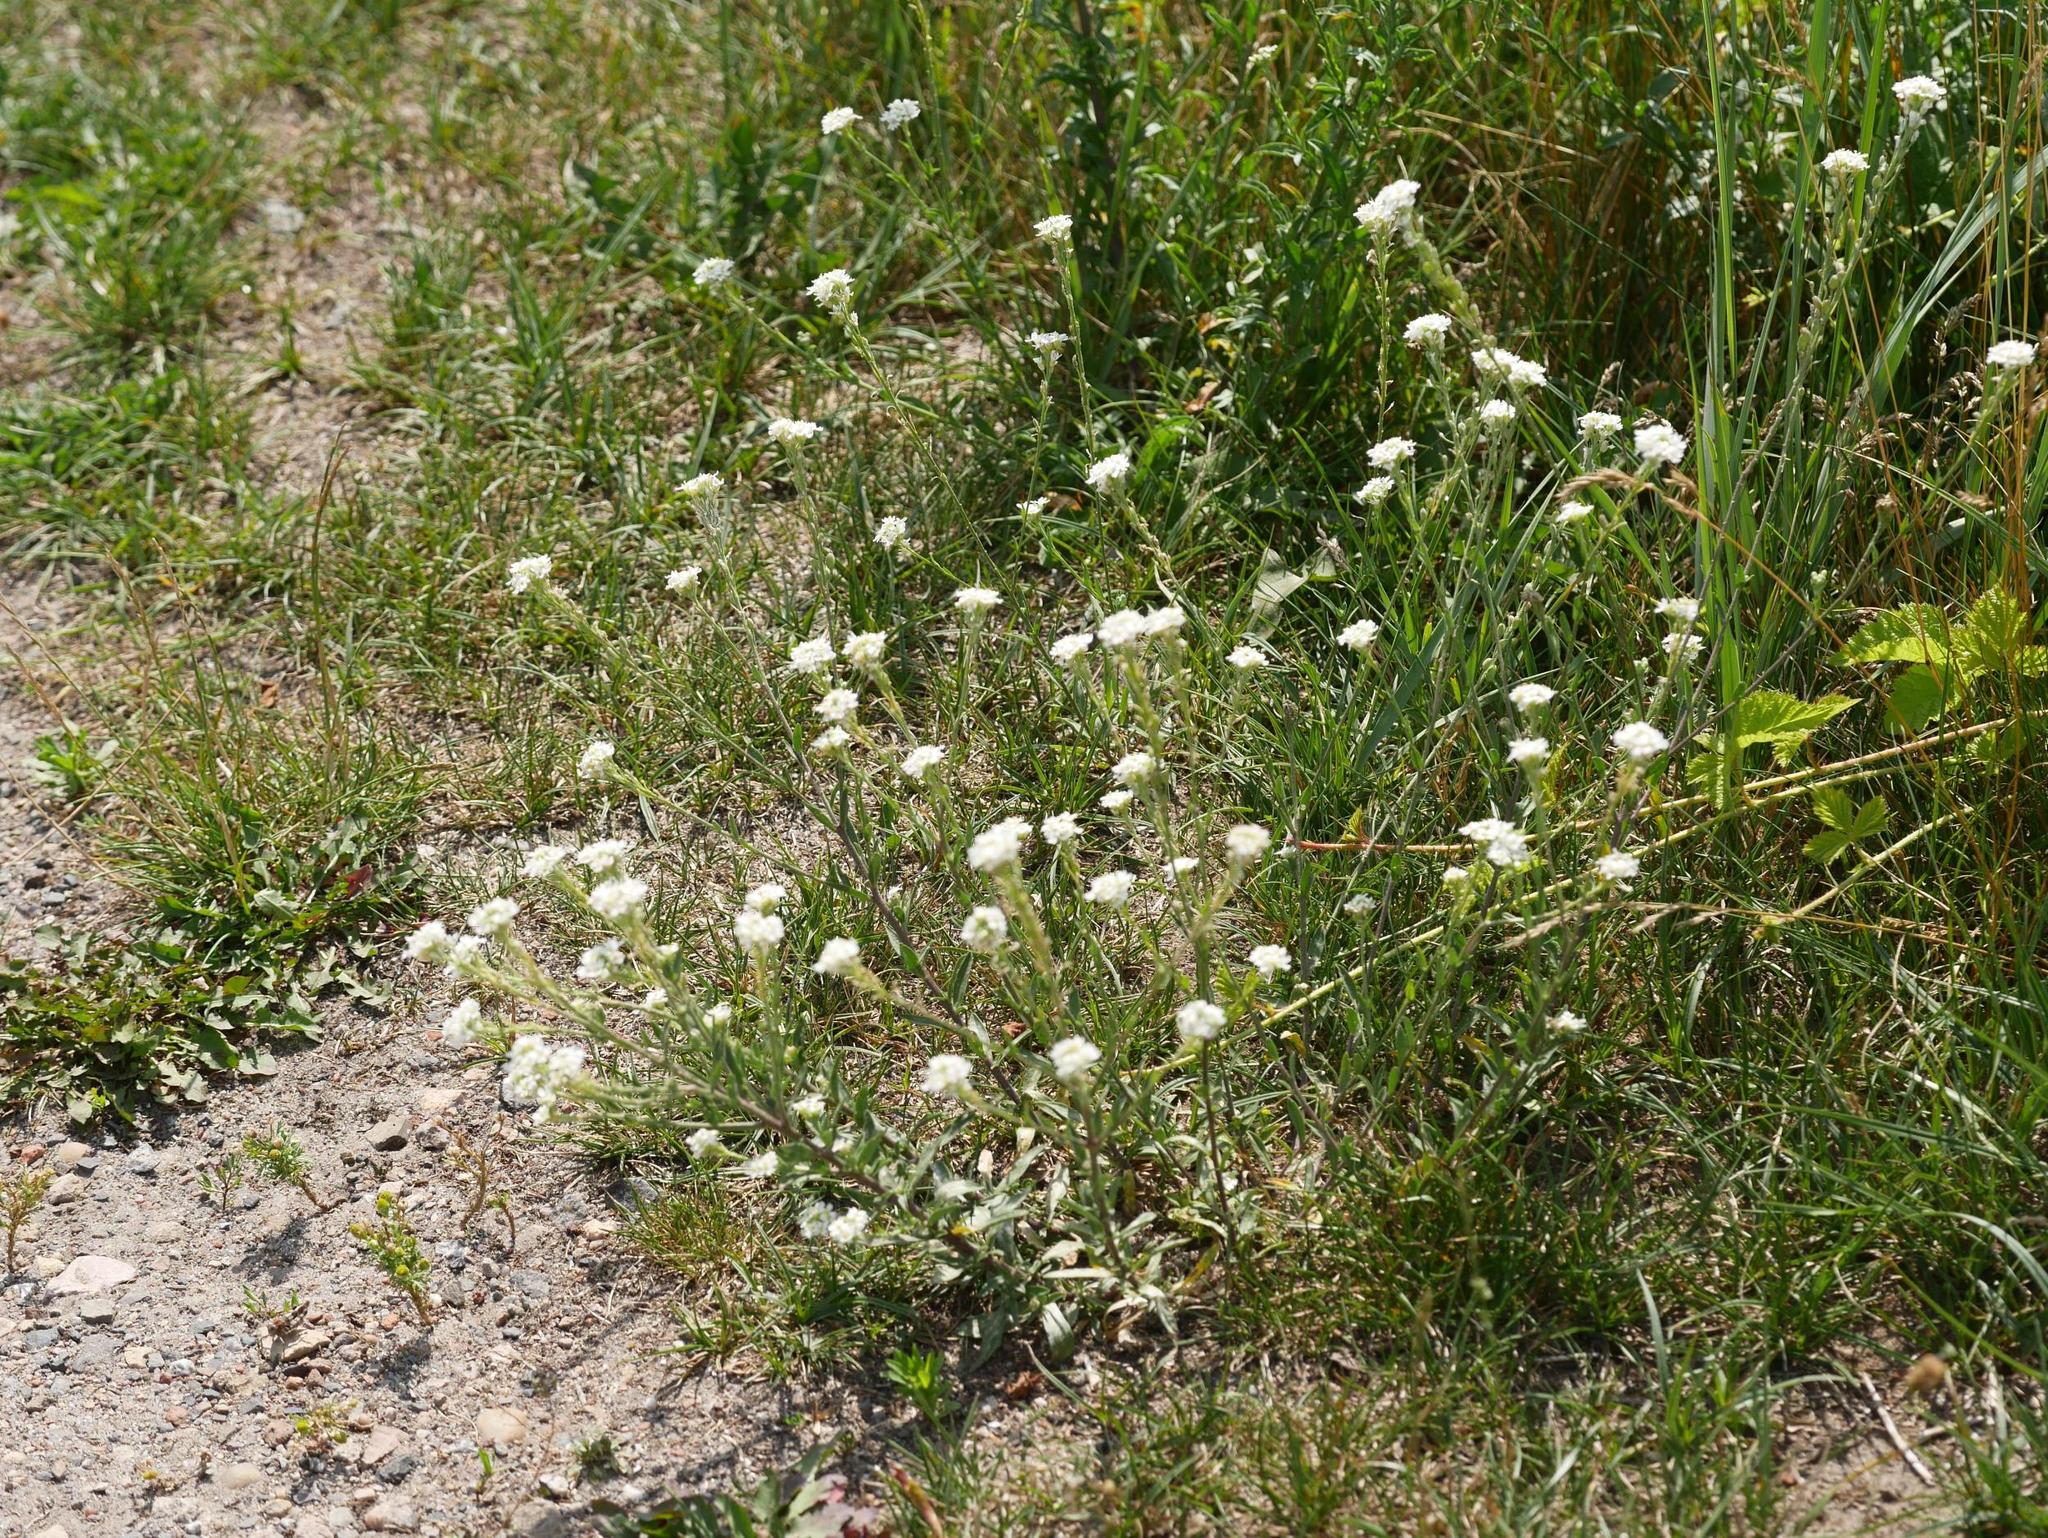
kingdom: Plantae
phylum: Tracheophyta
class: Magnoliopsida
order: Brassicales
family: Brassicaceae
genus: Berteroa
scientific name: Berteroa incana
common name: Hoary alison
